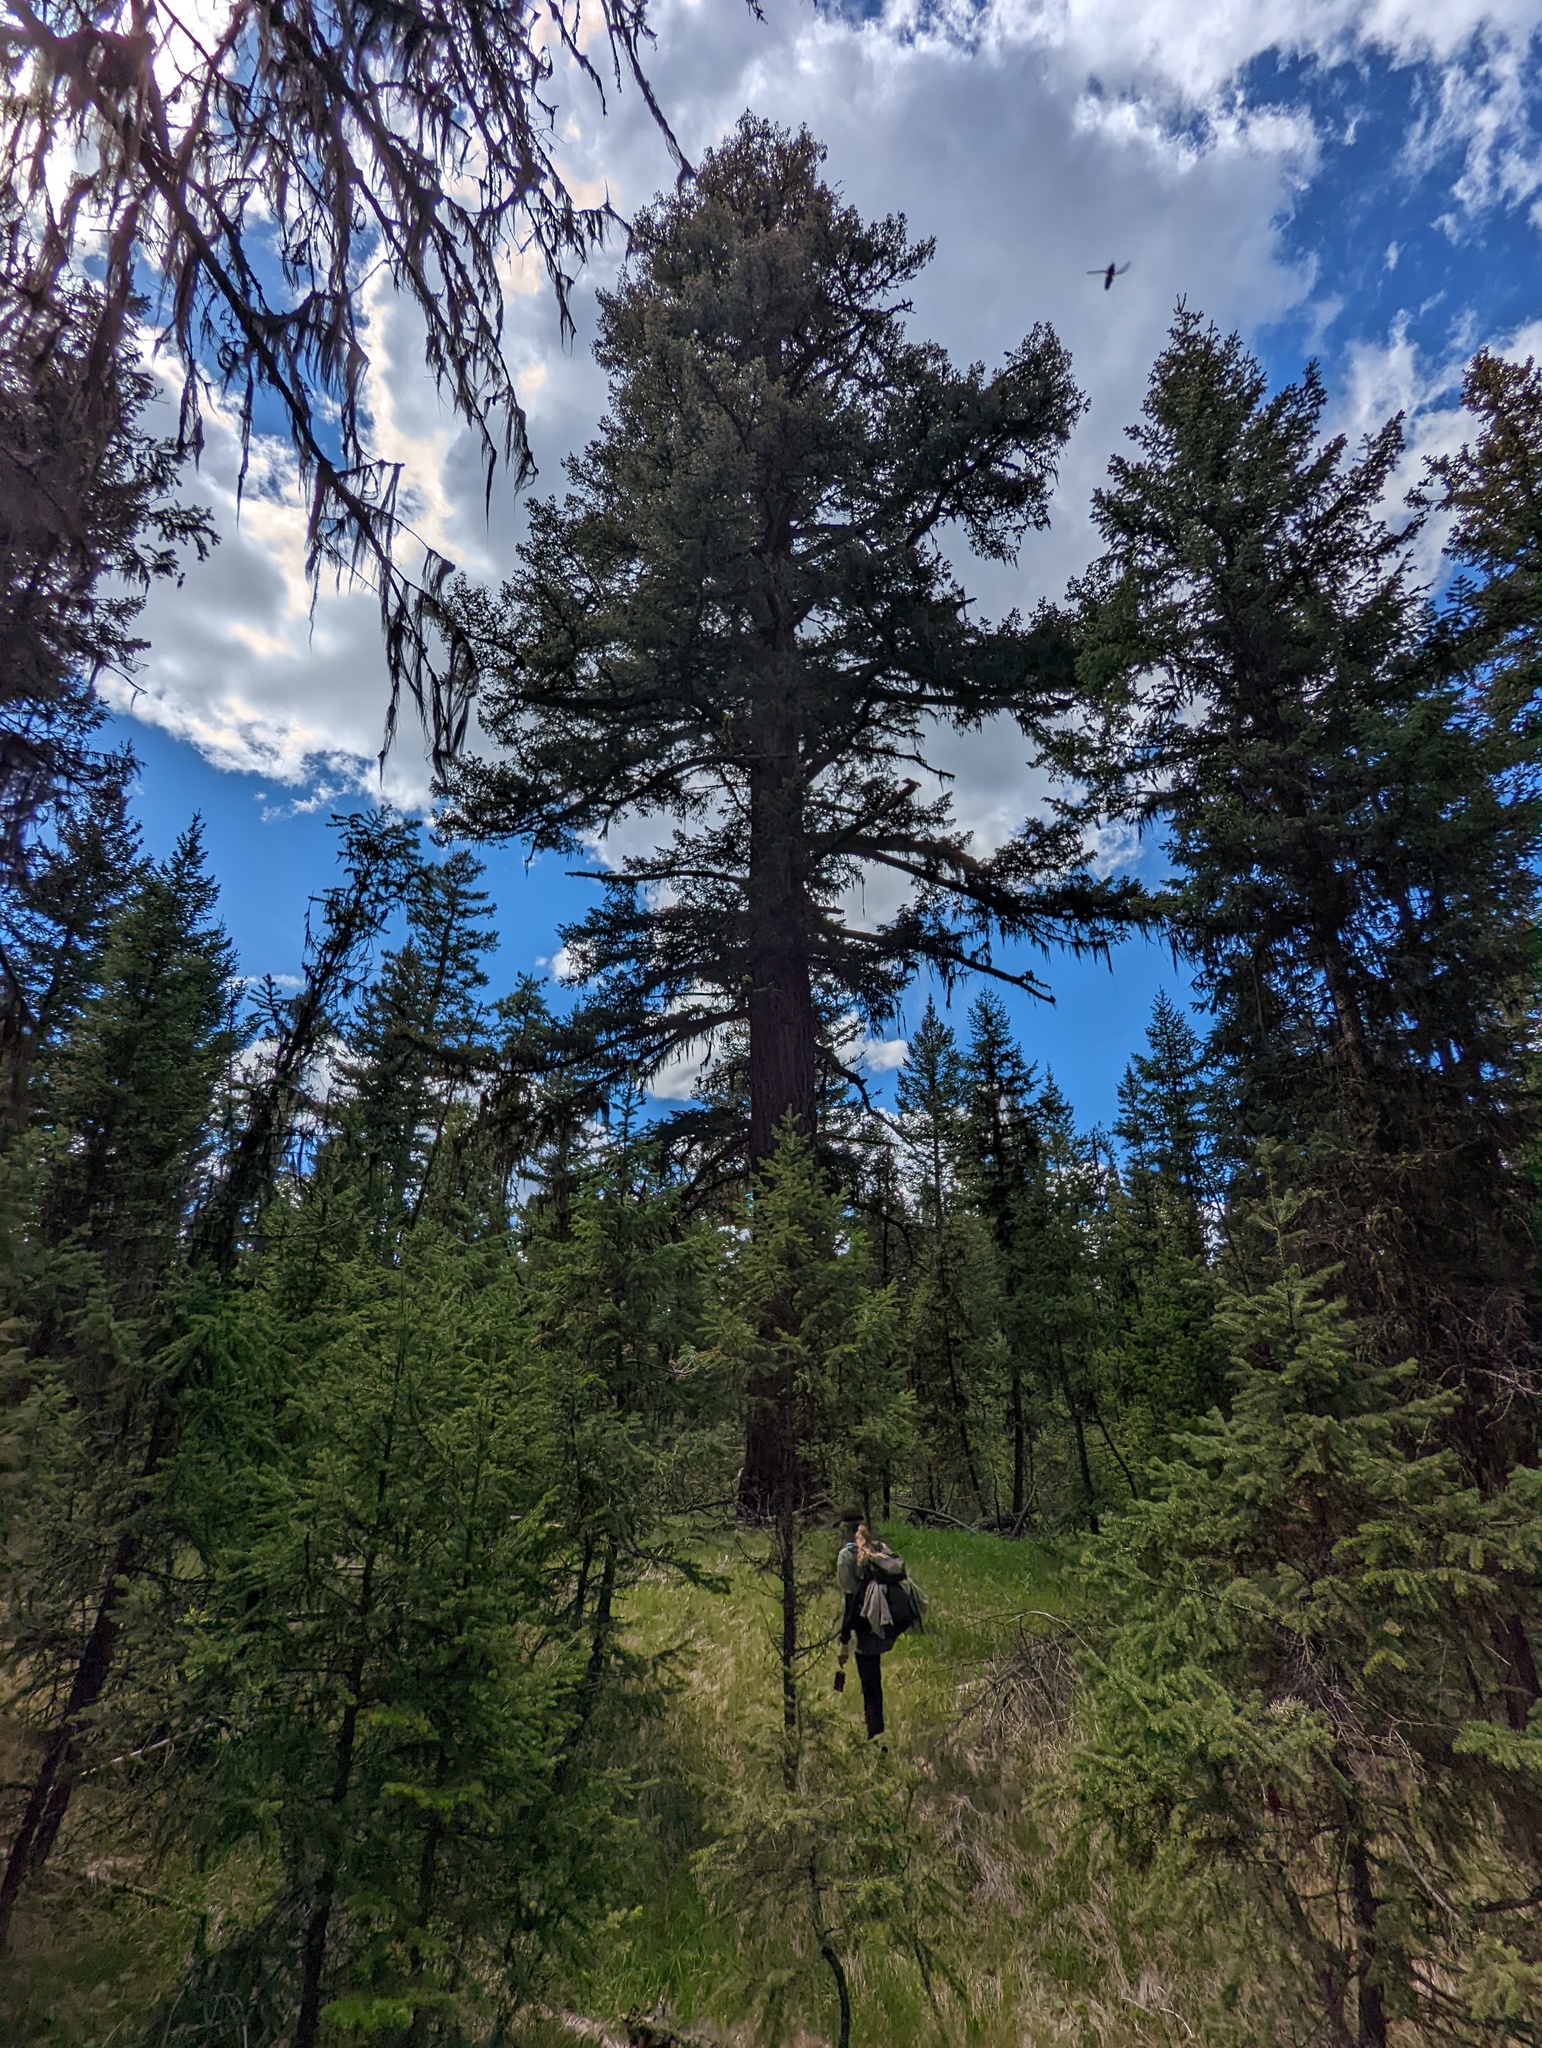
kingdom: Plantae
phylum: Tracheophyta
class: Pinopsida
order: Pinales
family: Pinaceae
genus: Pseudotsuga
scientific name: Pseudotsuga menziesii
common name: Douglas fir
